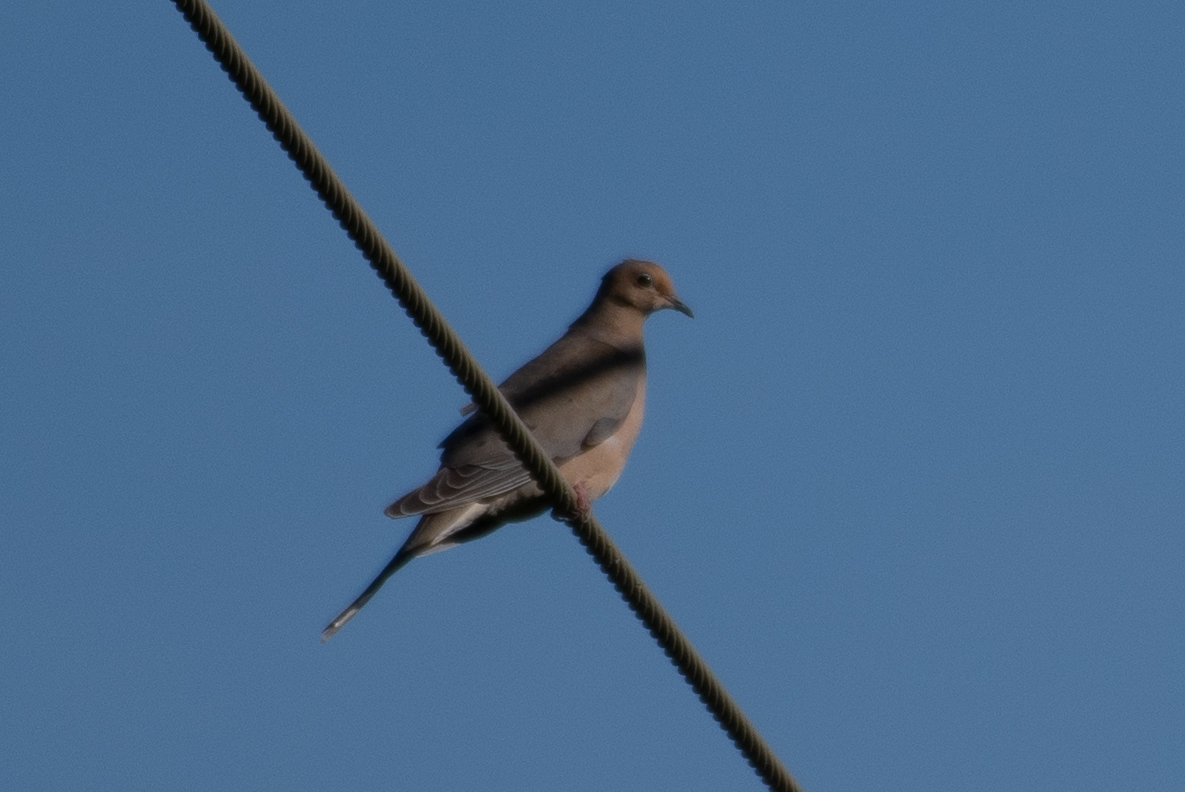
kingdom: Animalia
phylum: Chordata
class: Aves
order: Columbiformes
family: Columbidae
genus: Zenaida
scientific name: Zenaida macroura
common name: Mourning dove
